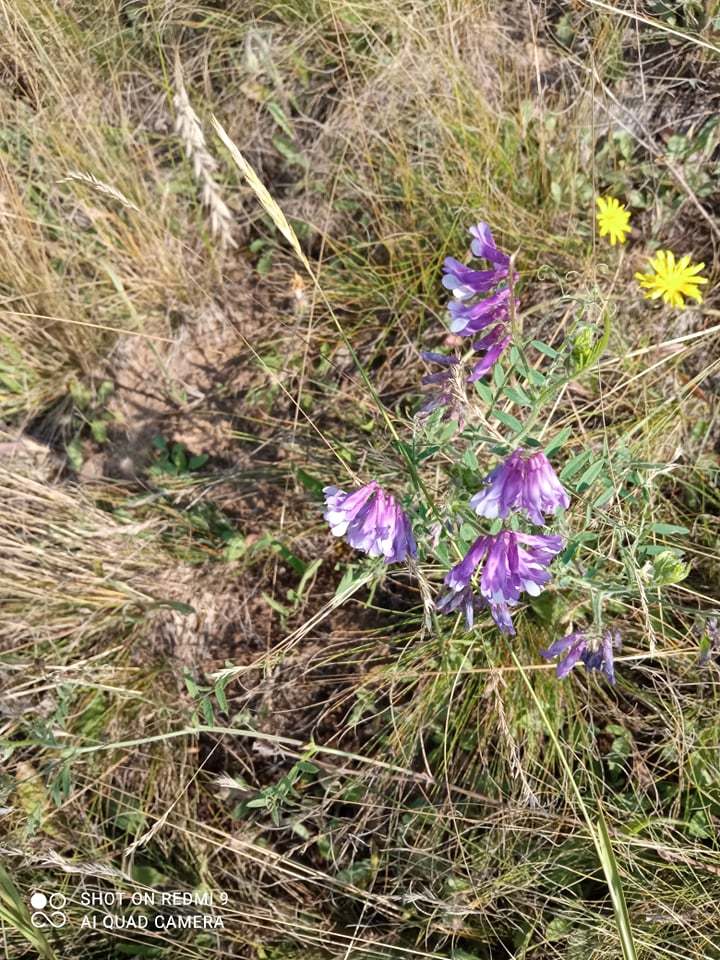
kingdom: Plantae
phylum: Tracheophyta
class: Magnoliopsida
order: Fabales
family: Fabaceae
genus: Vicia
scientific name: Vicia villosa
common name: Fodder vetch
